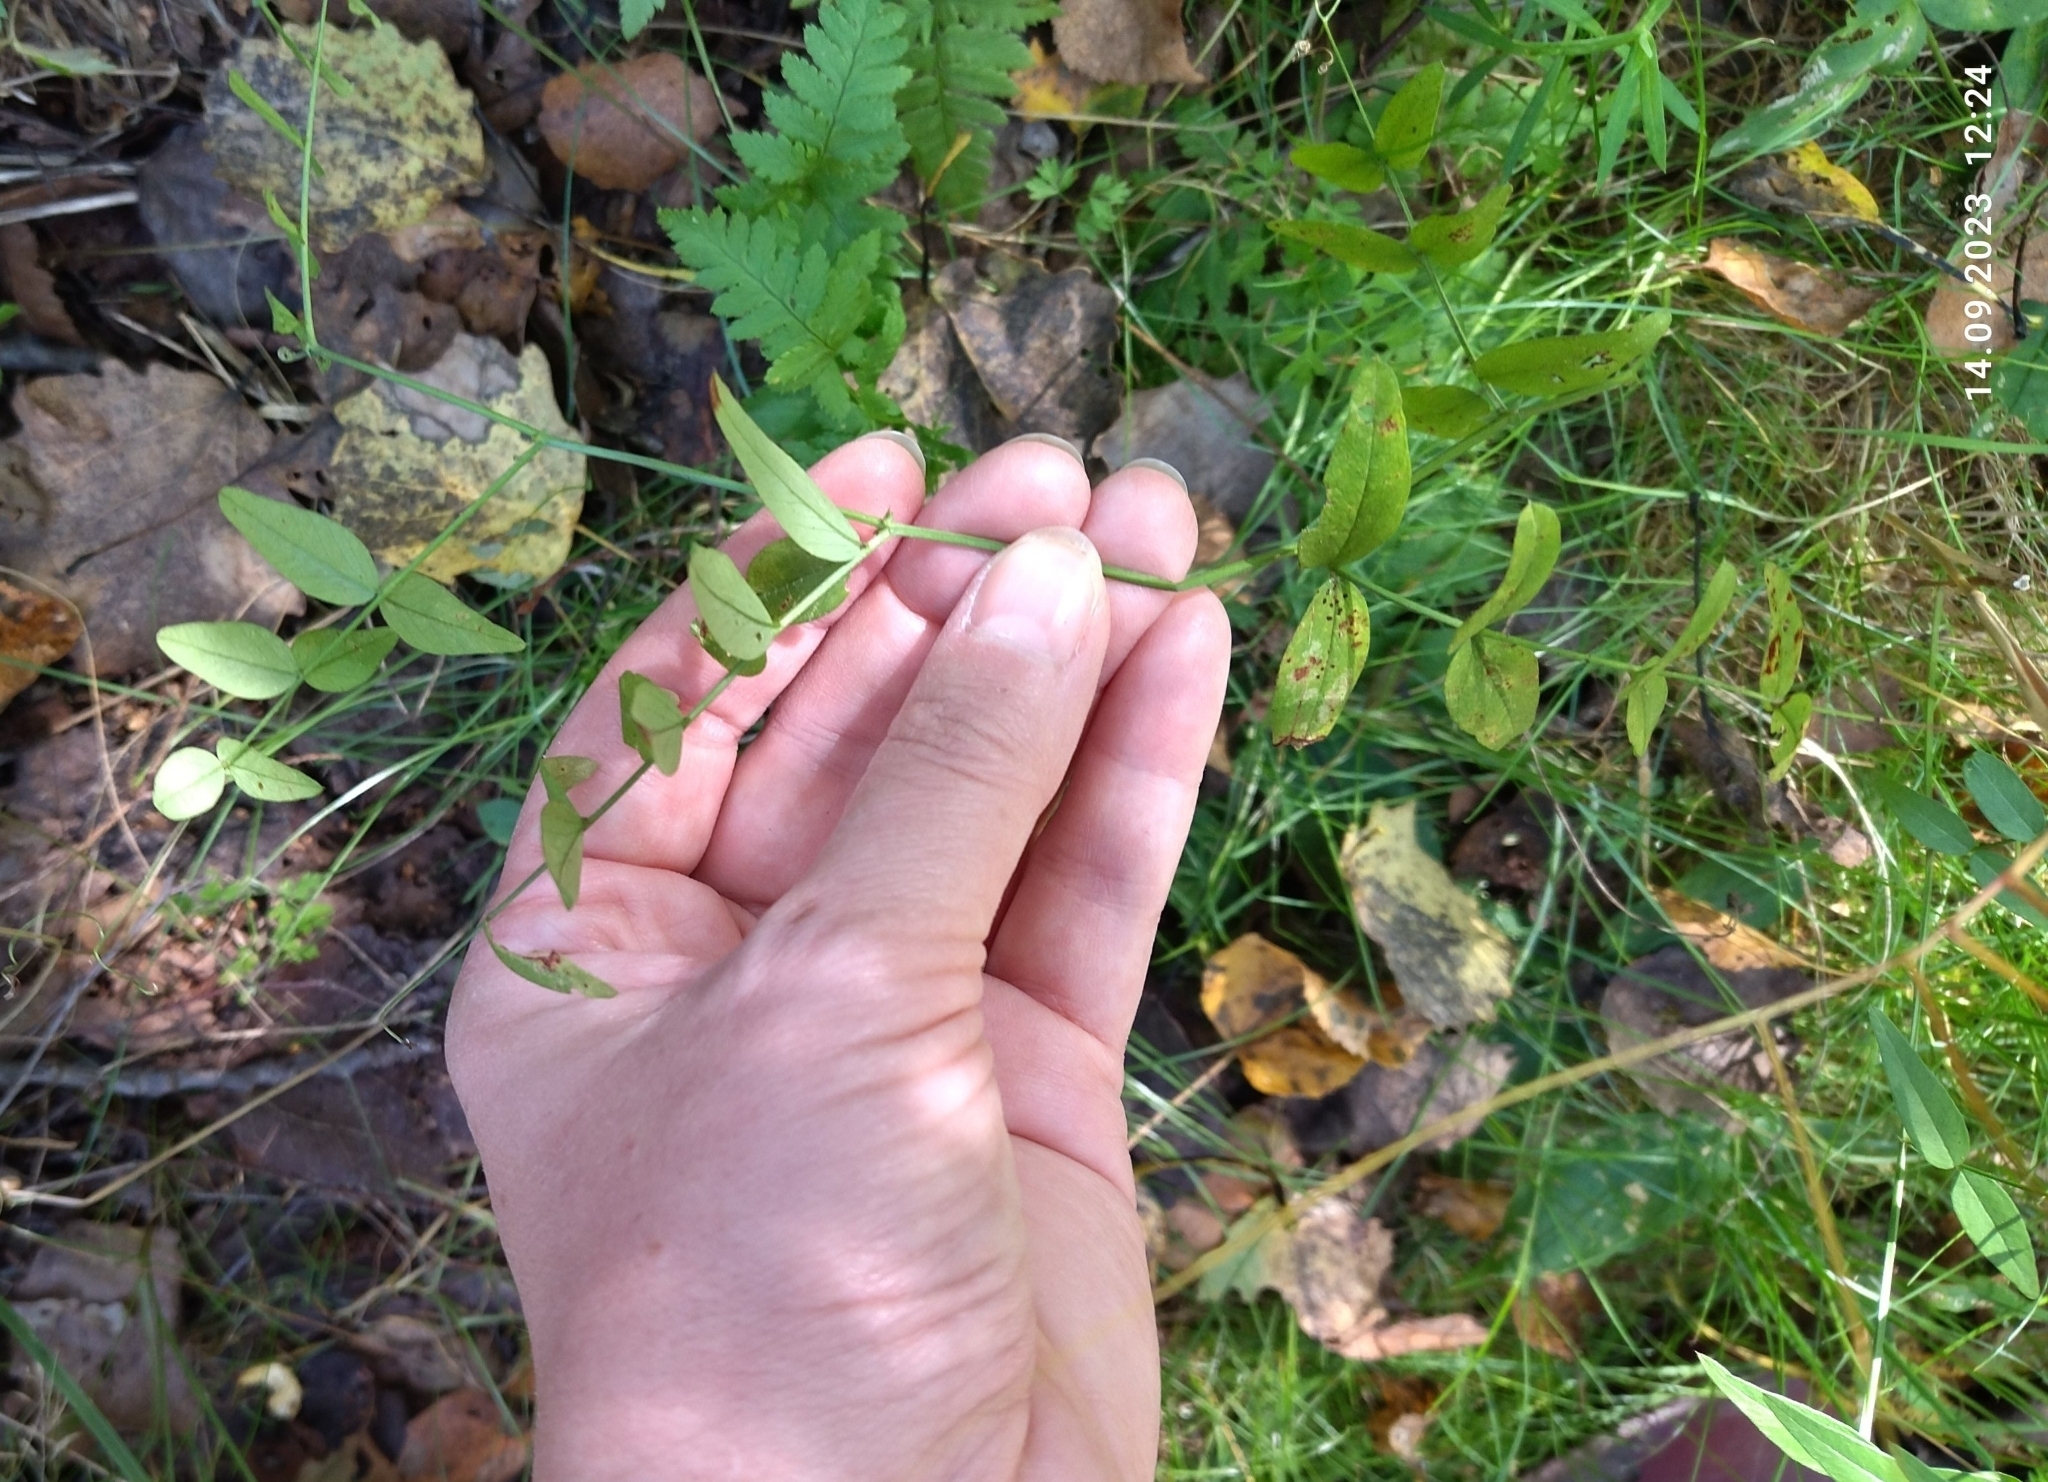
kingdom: Plantae
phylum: Tracheophyta
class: Magnoliopsida
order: Fabales
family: Fabaceae
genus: Vicia
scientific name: Vicia sepium
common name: Bush vetch
